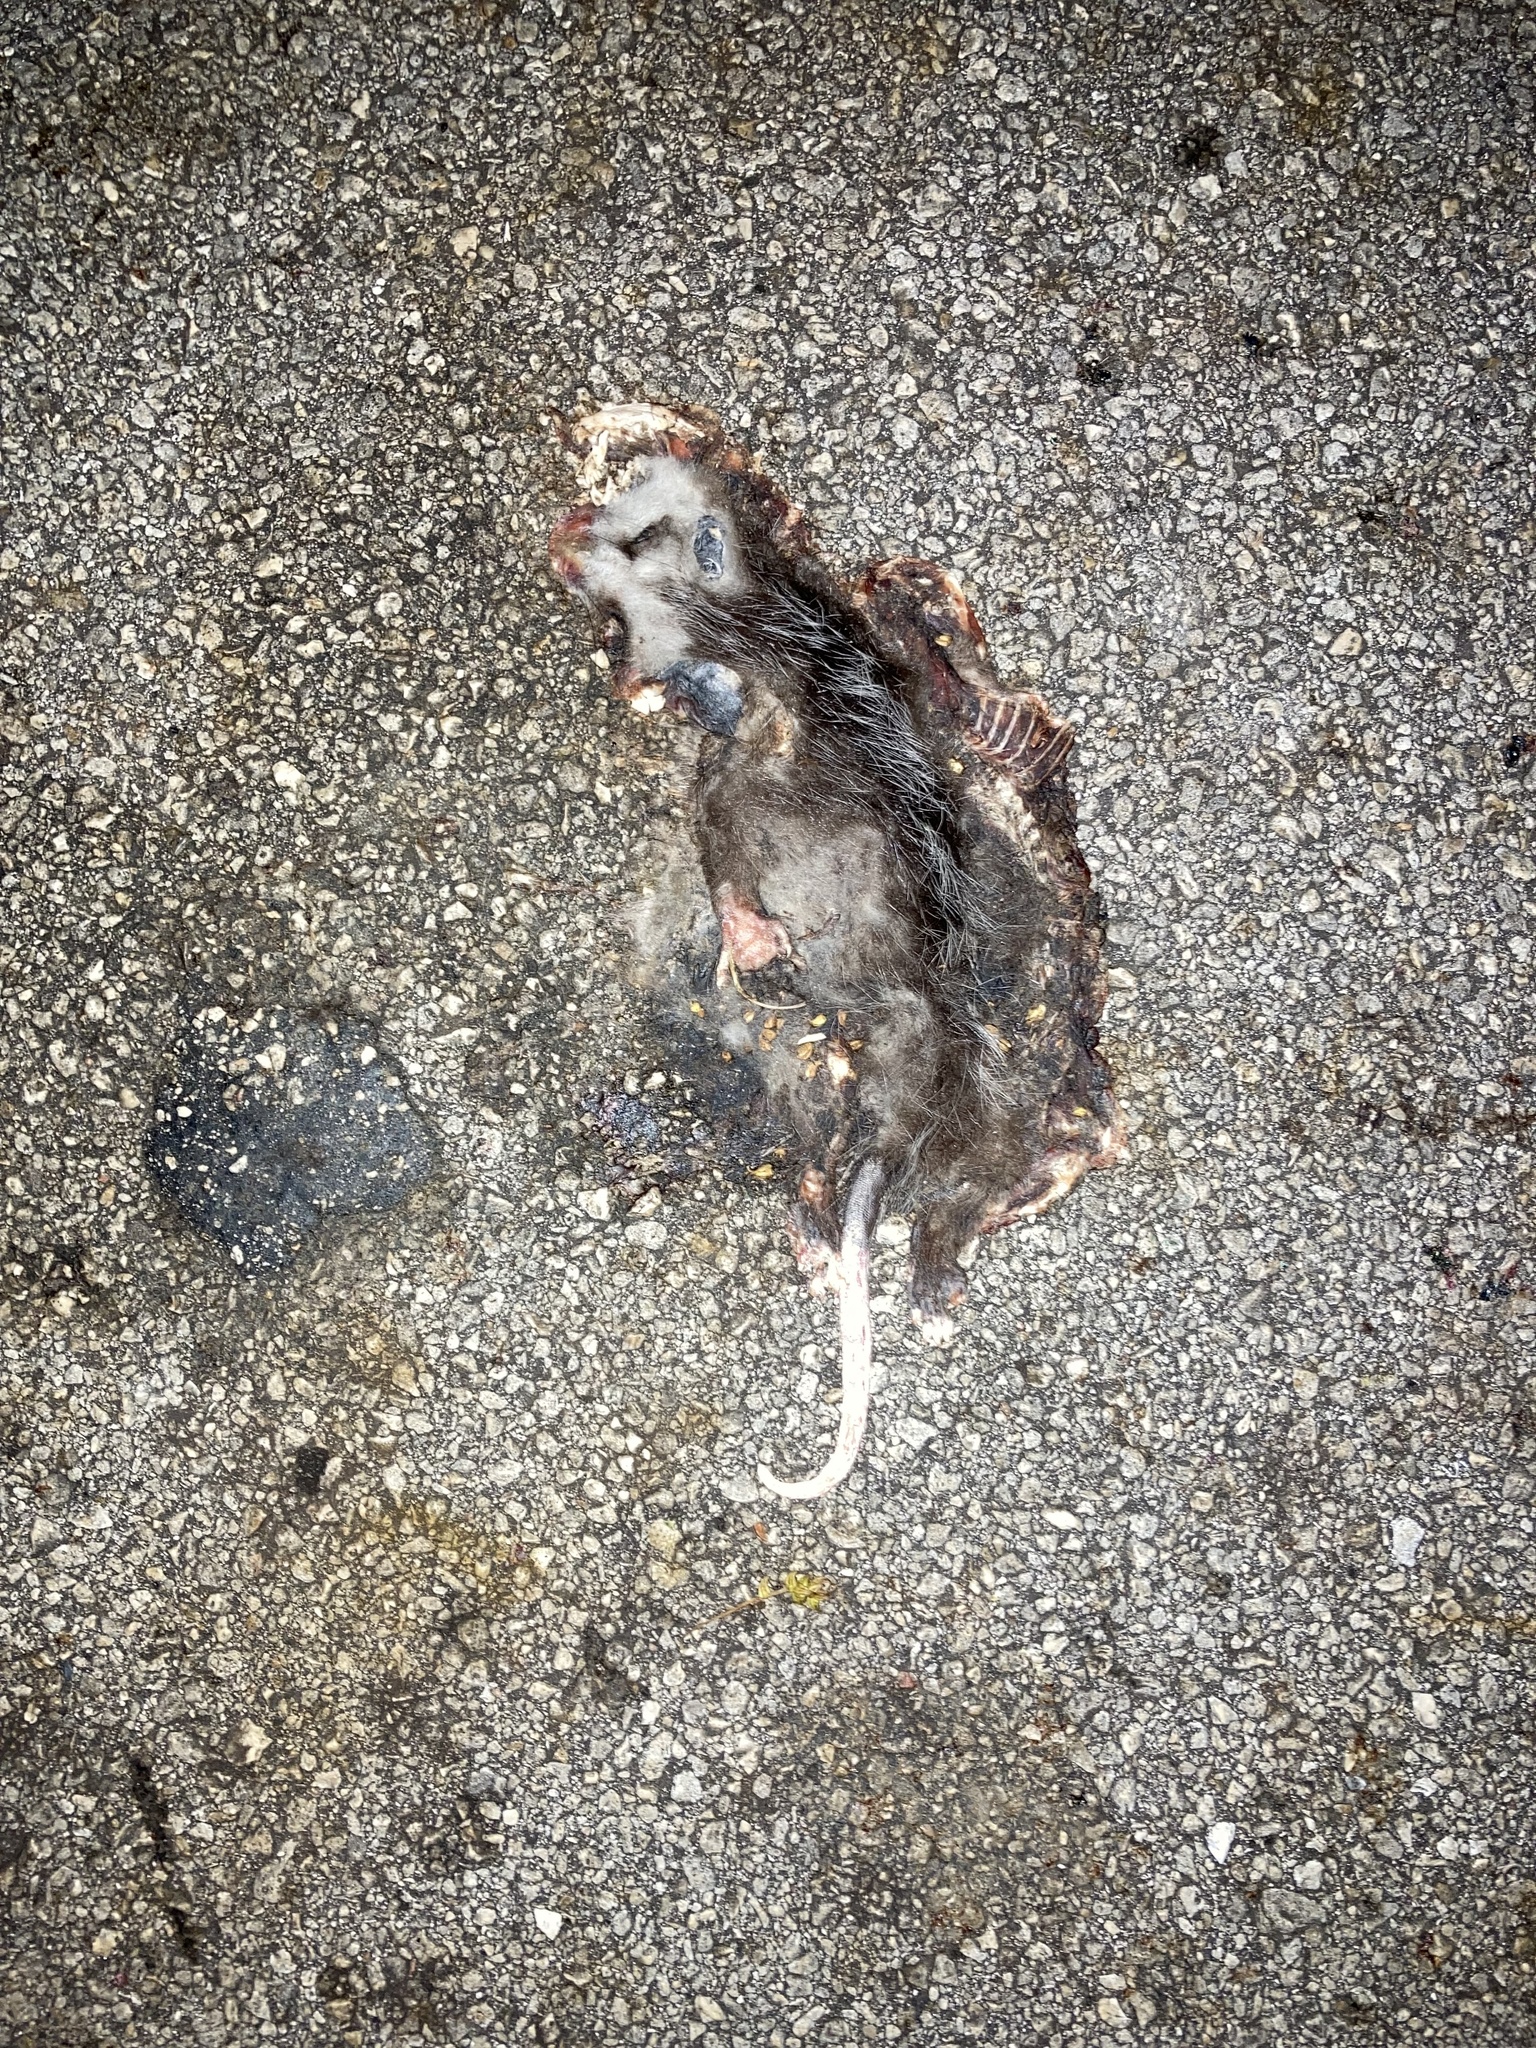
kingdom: Animalia
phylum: Chordata
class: Mammalia
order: Didelphimorphia
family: Didelphidae
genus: Didelphis
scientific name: Didelphis virginiana
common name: Virginia opossum
